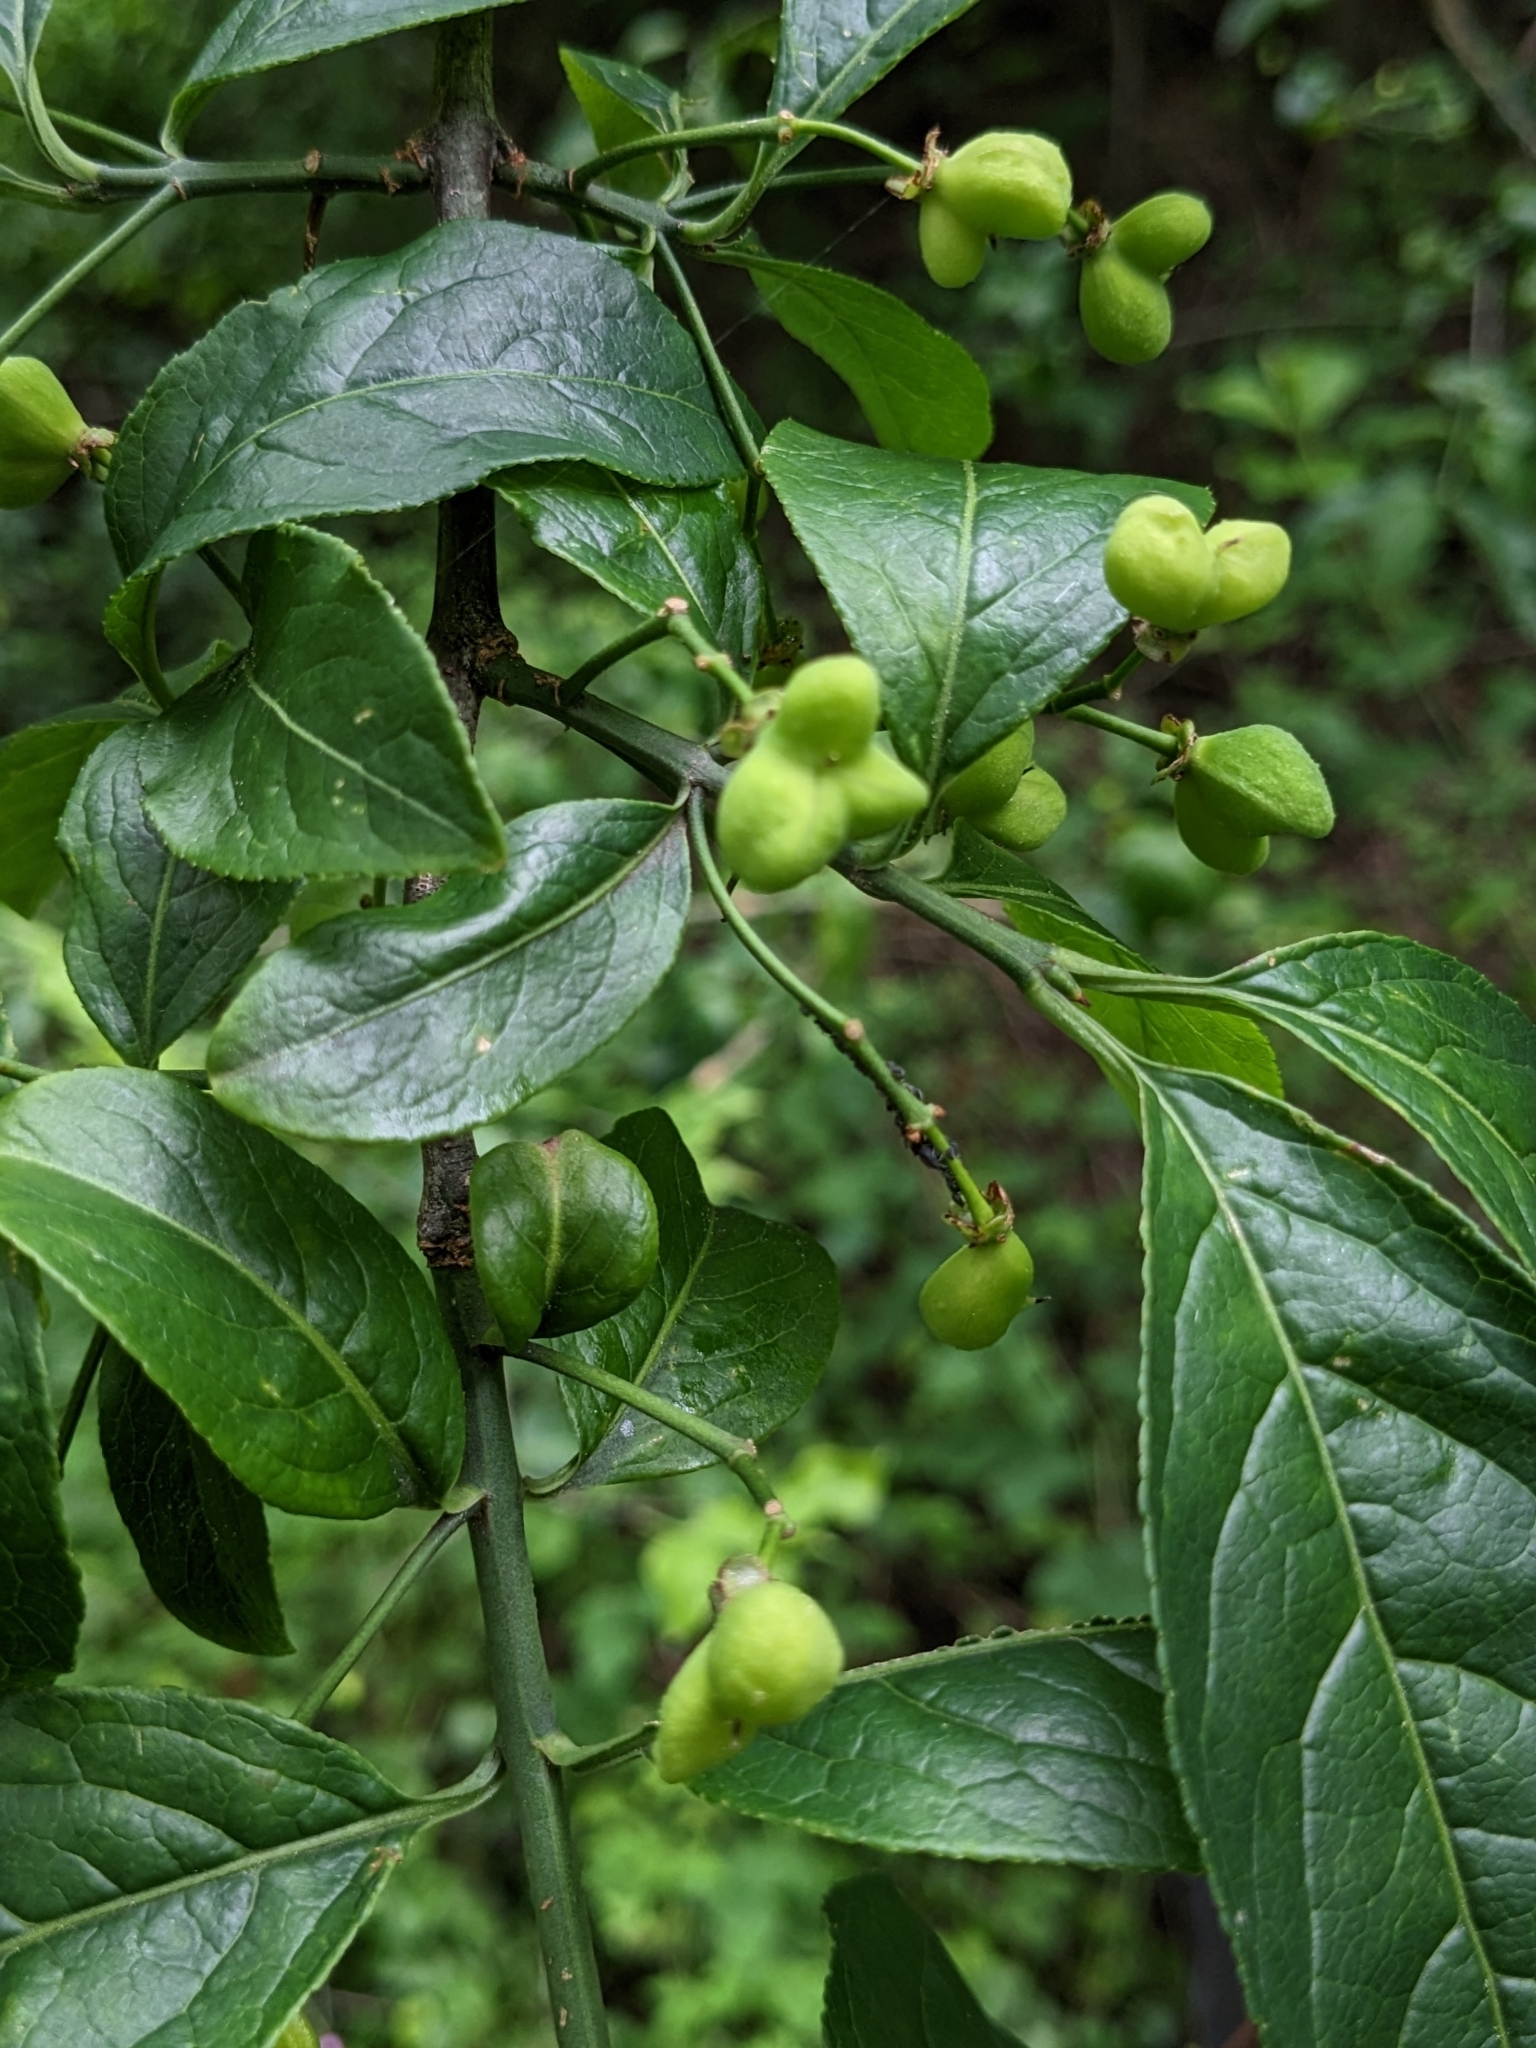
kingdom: Plantae
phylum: Tracheophyta
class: Magnoliopsida
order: Celastrales
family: Celastraceae
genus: Euonymus
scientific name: Euonymus europaeus
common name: Spindle
